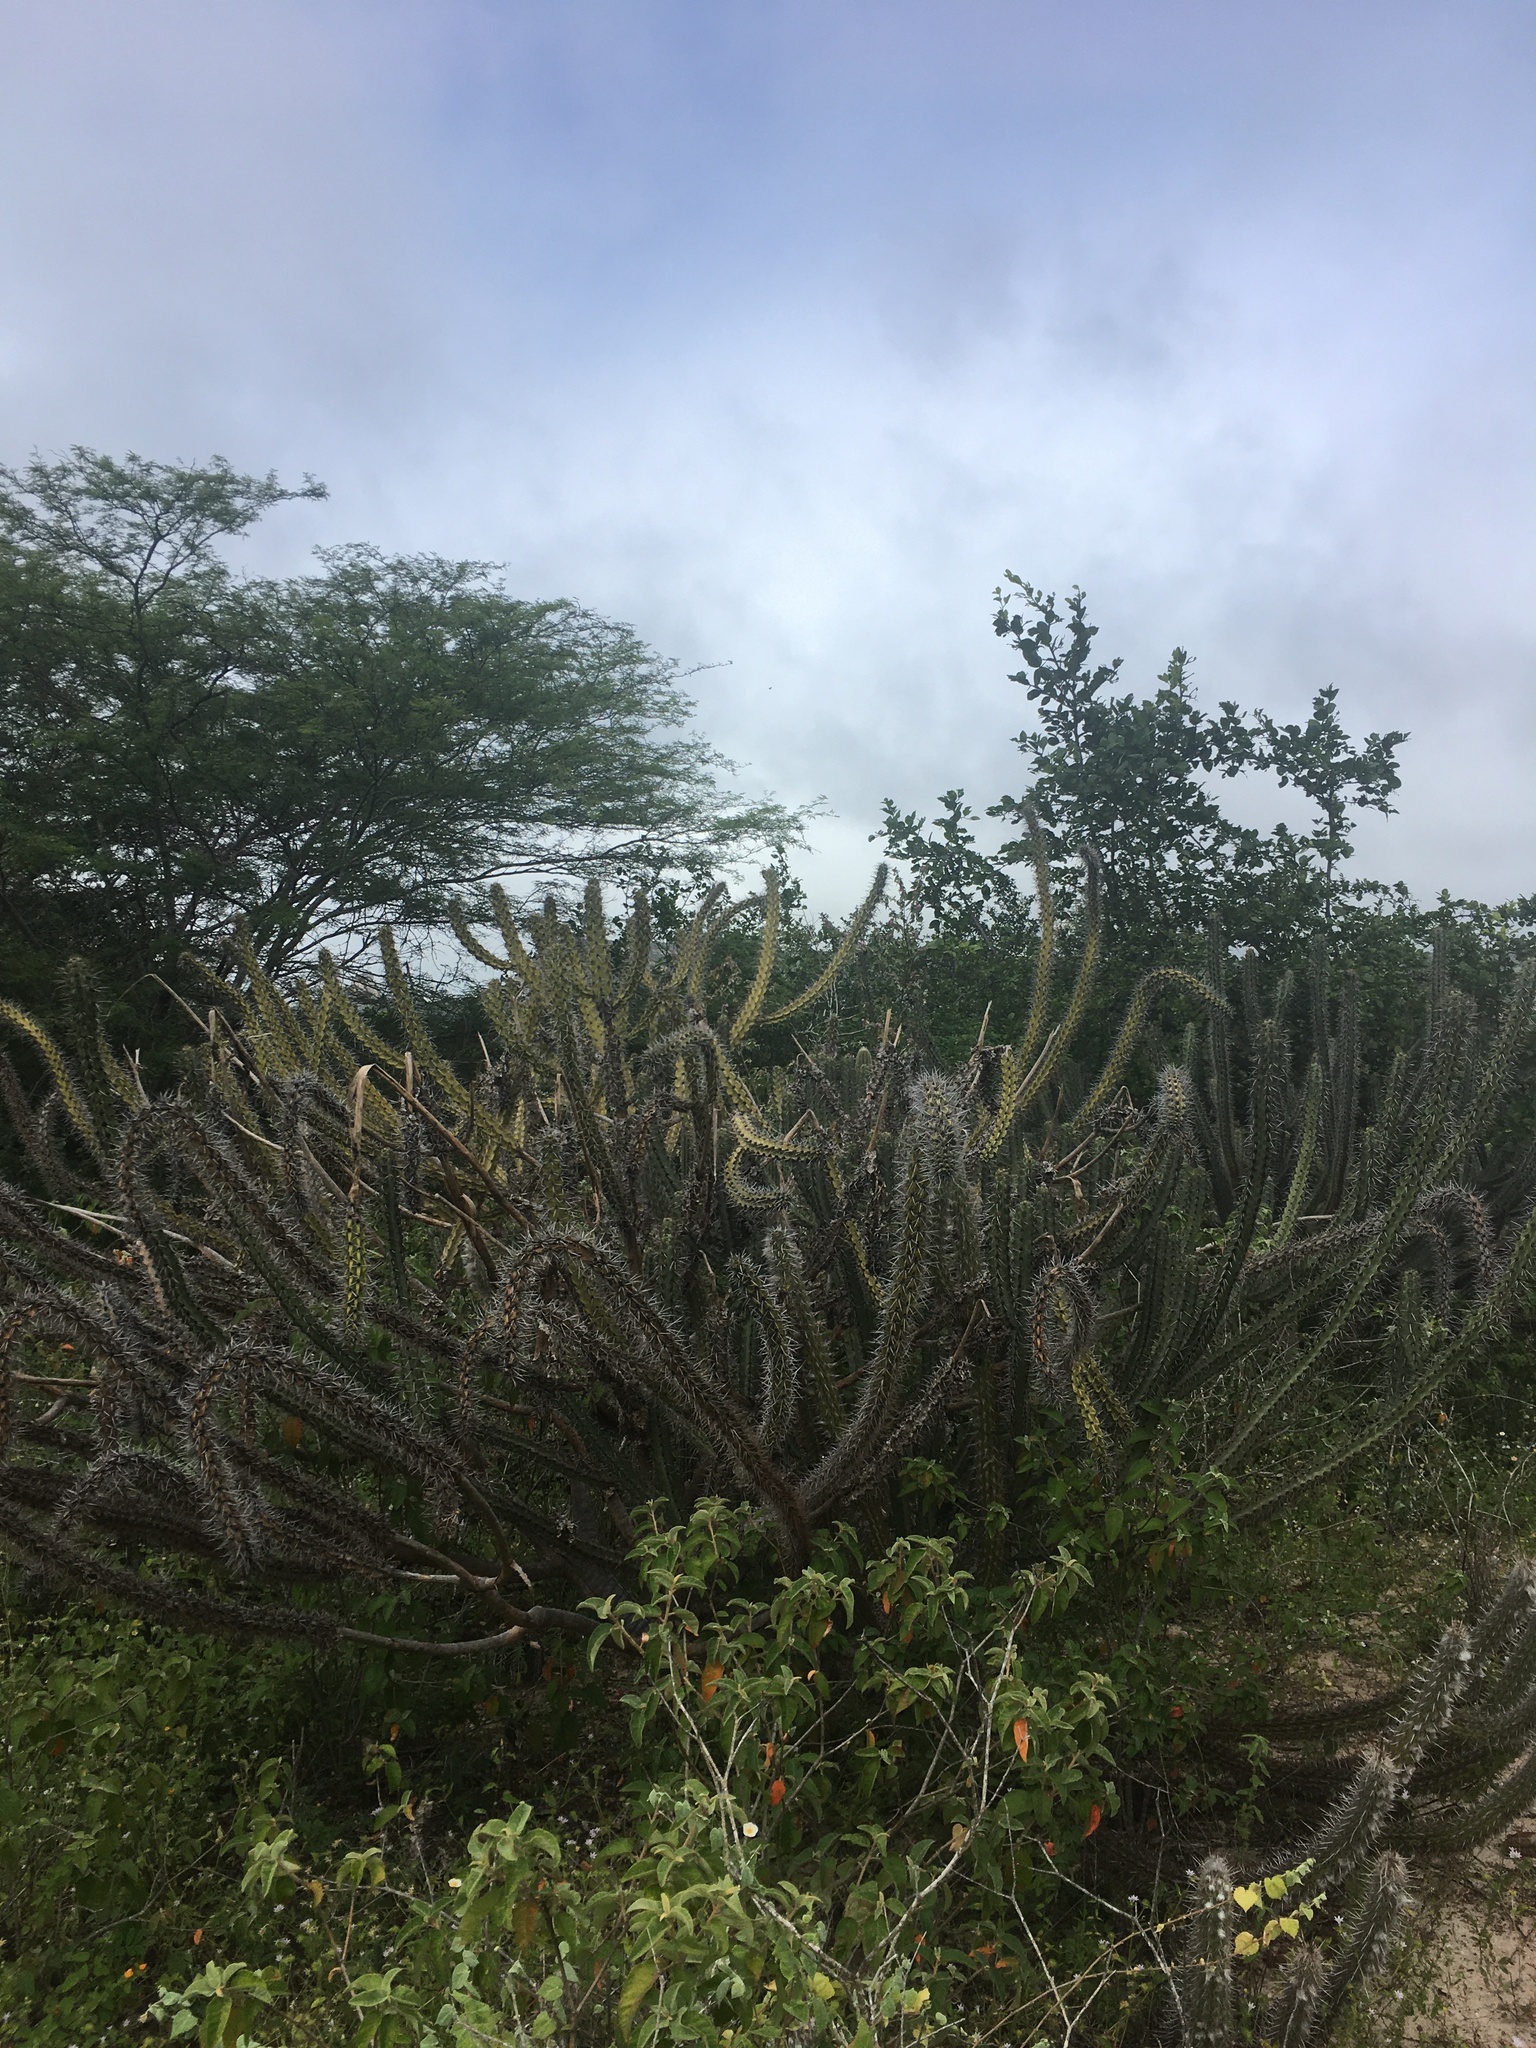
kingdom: Plantae
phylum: Tracheophyta
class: Magnoliopsida
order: Caryophyllales
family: Cactaceae
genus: Xiquexique
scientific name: Xiquexique tuberculatus
